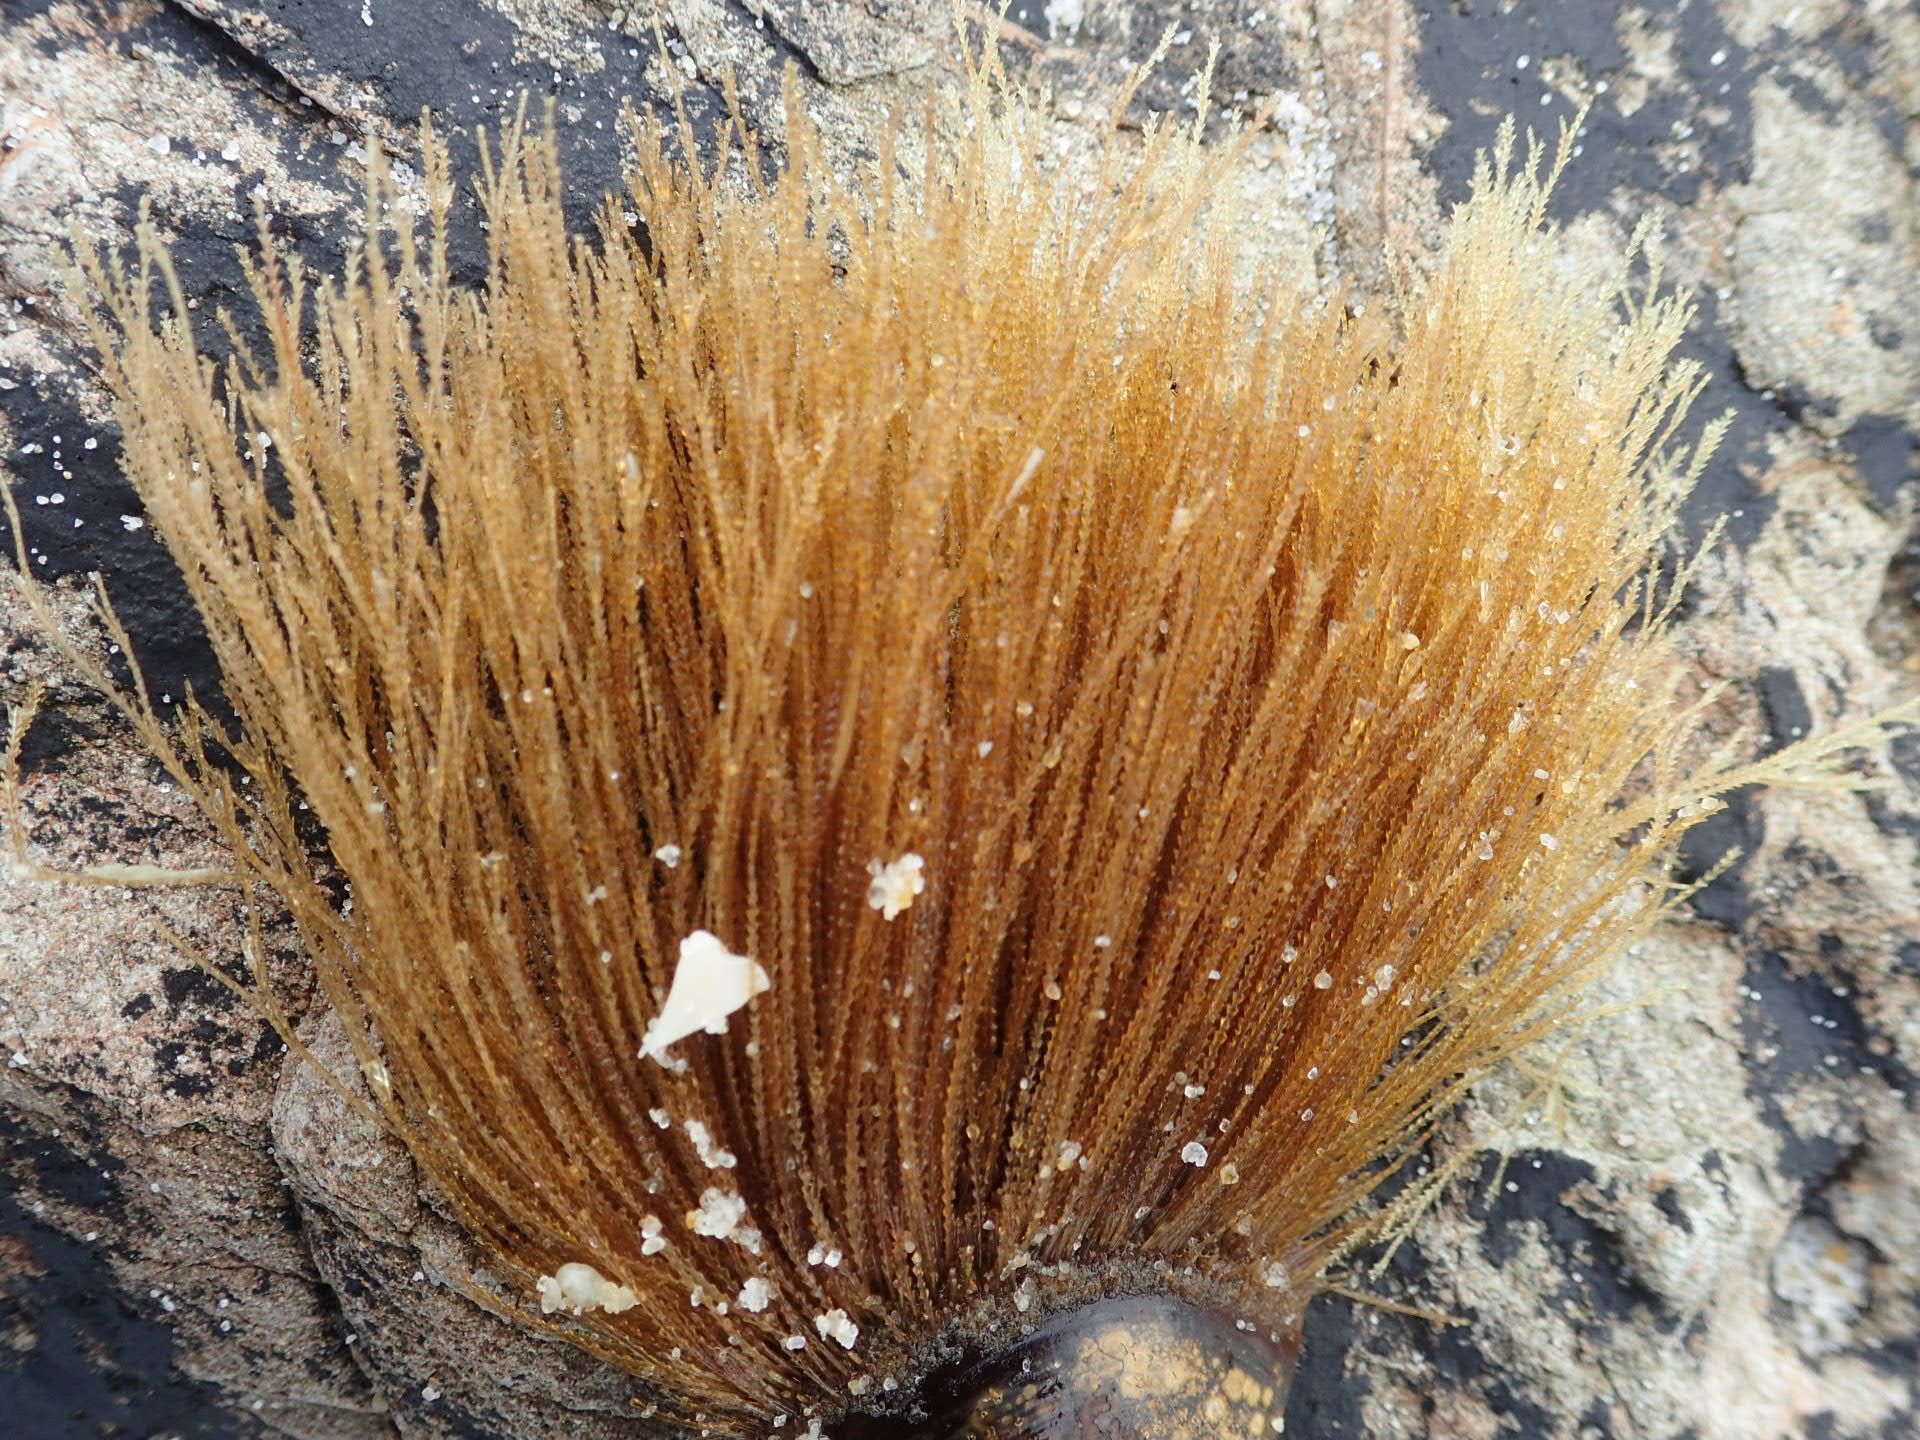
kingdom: Animalia
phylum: Cnidaria
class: Hydrozoa
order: Leptothecata
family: Sertulariidae
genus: Amphisbetia
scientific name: Amphisbetia bispinosa
